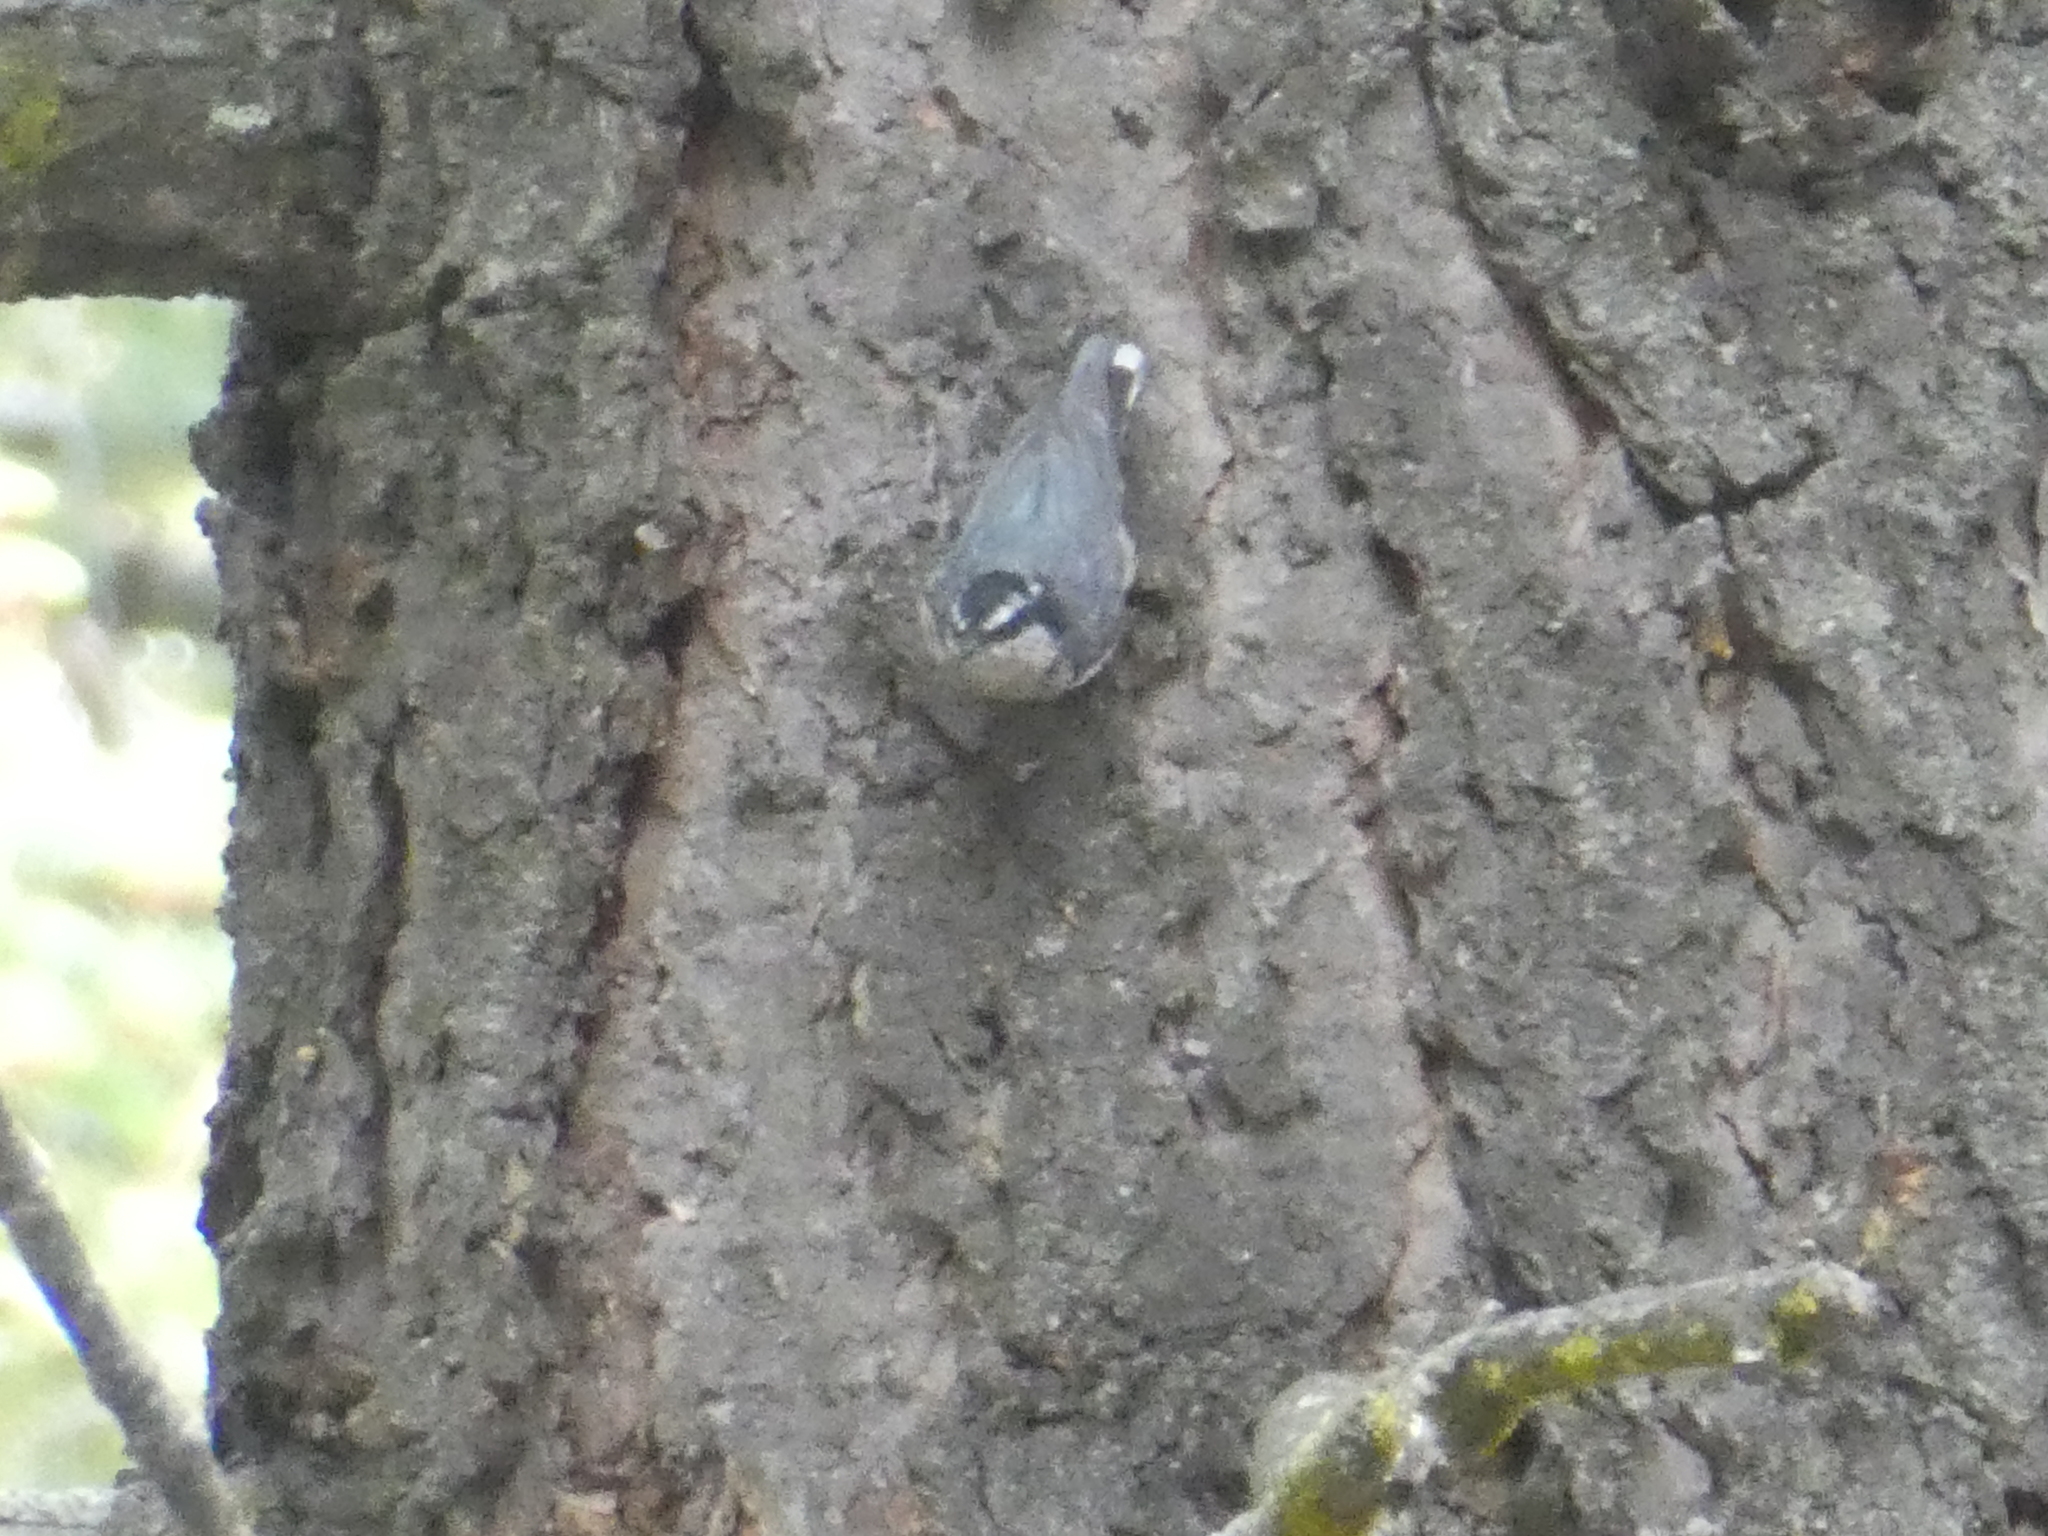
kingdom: Animalia
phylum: Chordata
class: Aves
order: Passeriformes
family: Sittidae
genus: Sitta
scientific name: Sitta canadensis
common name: Red-breasted nuthatch
